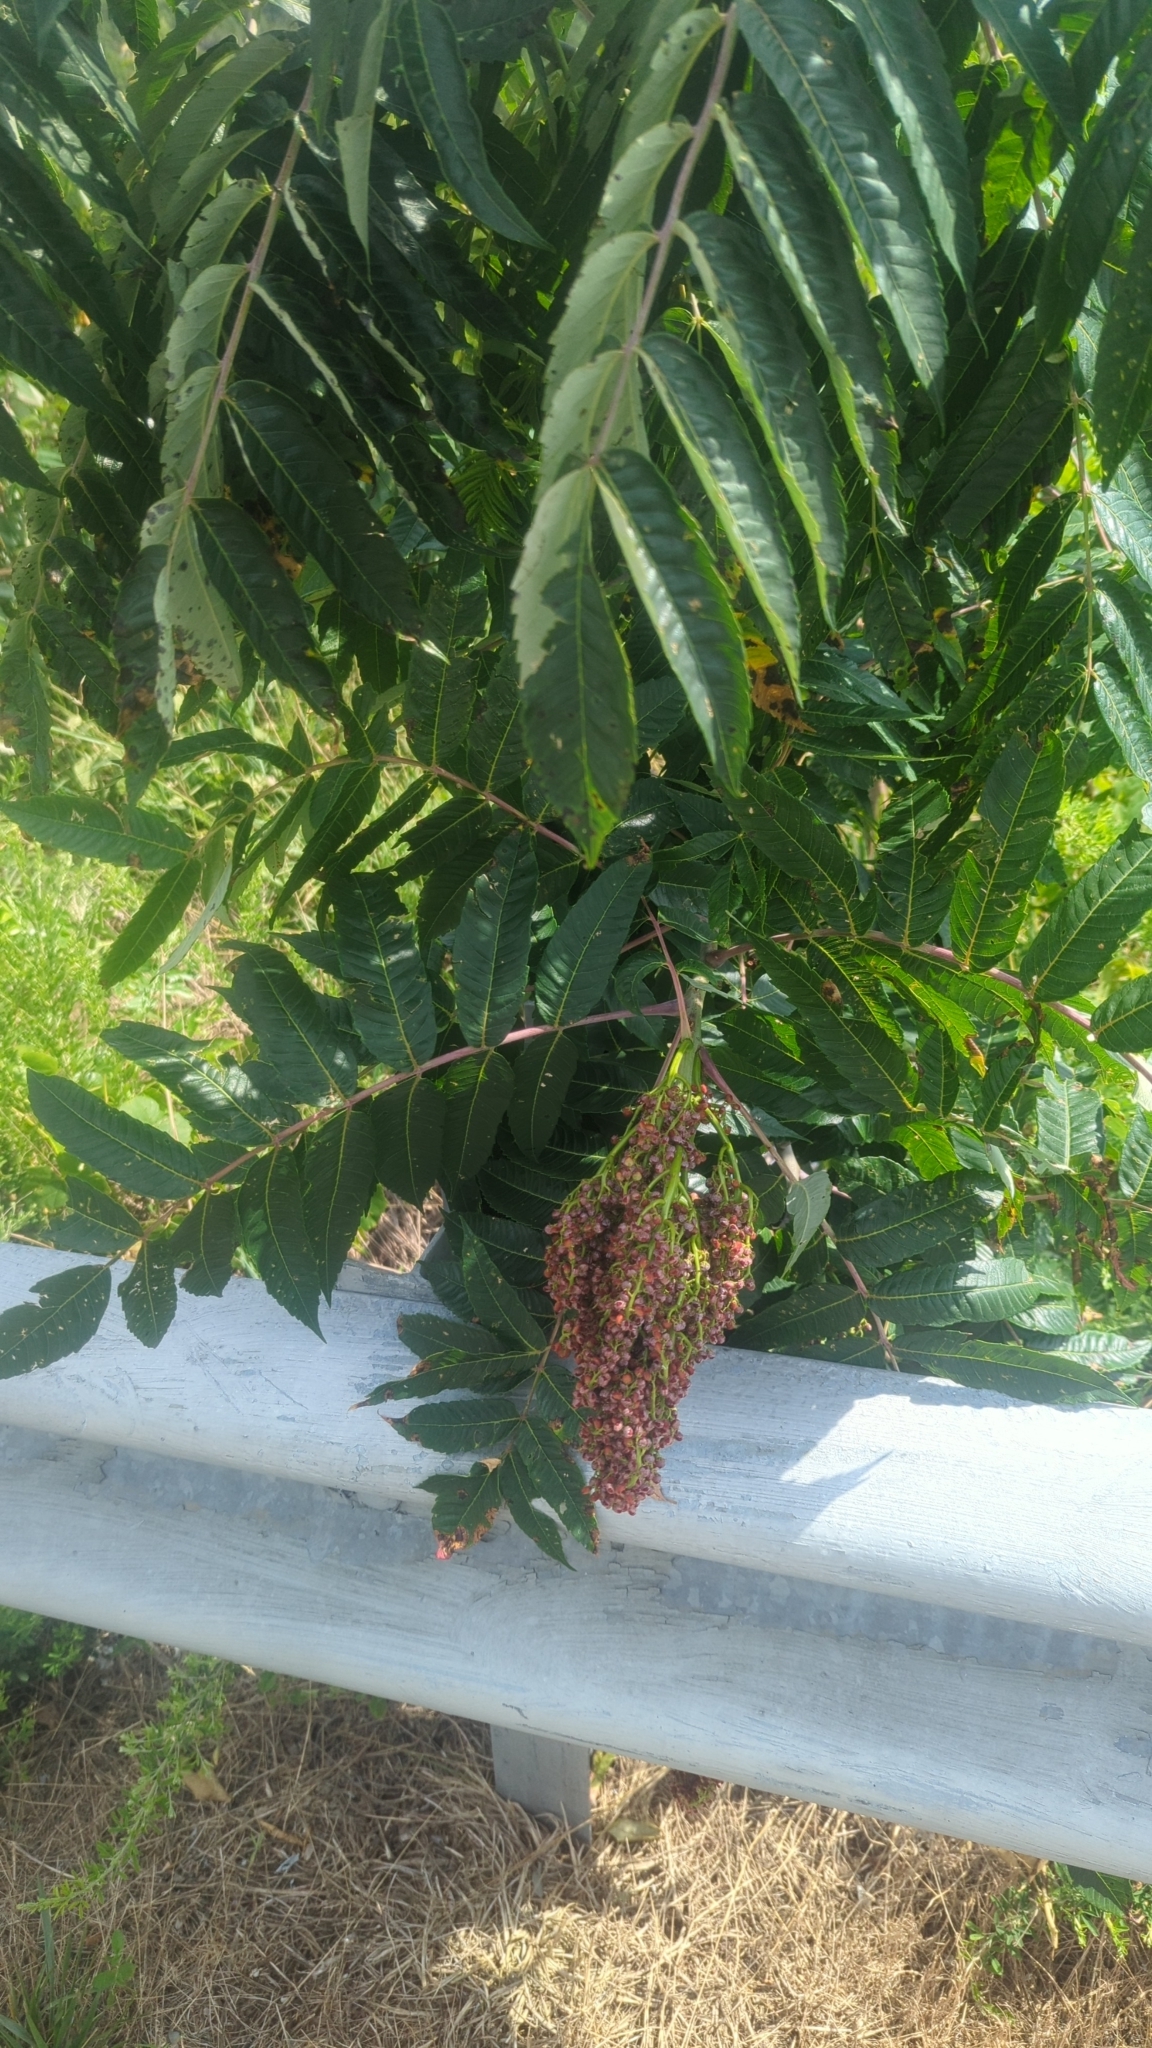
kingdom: Plantae
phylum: Tracheophyta
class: Magnoliopsida
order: Sapindales
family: Anacardiaceae
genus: Rhus
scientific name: Rhus glabra
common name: Scarlet sumac
